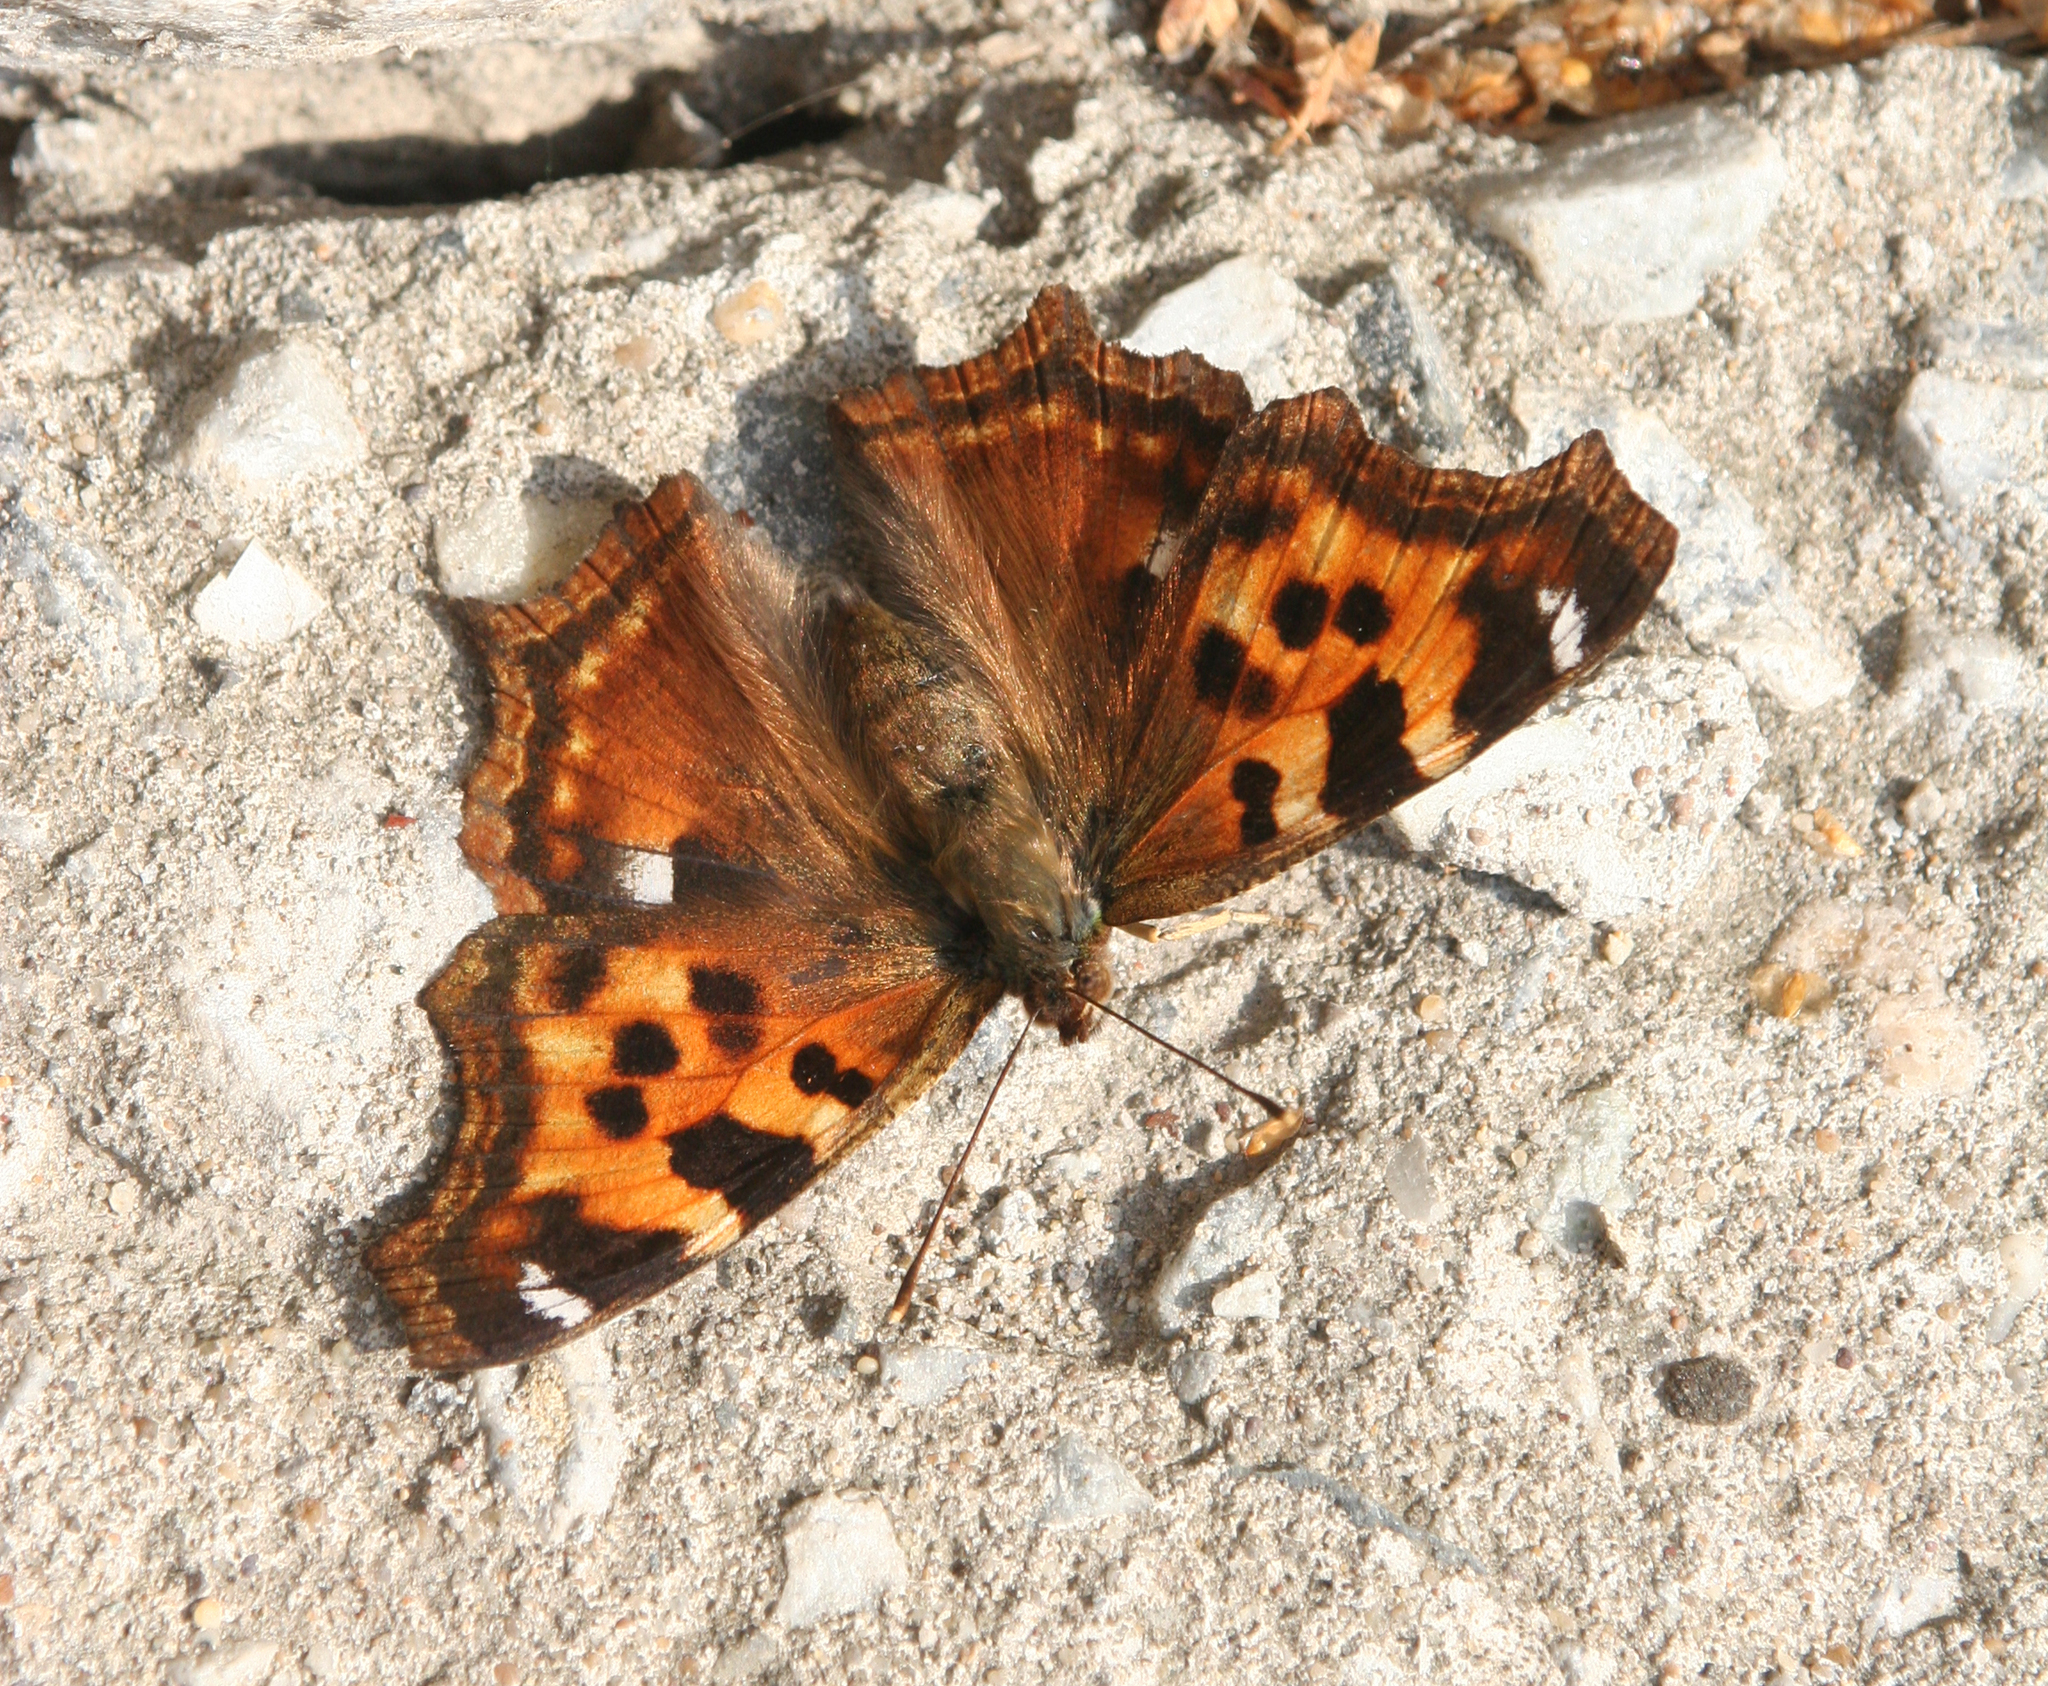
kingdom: Animalia
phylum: Arthropoda
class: Insecta
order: Lepidoptera
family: Nymphalidae
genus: Polygonia
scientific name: Polygonia vaualbum
